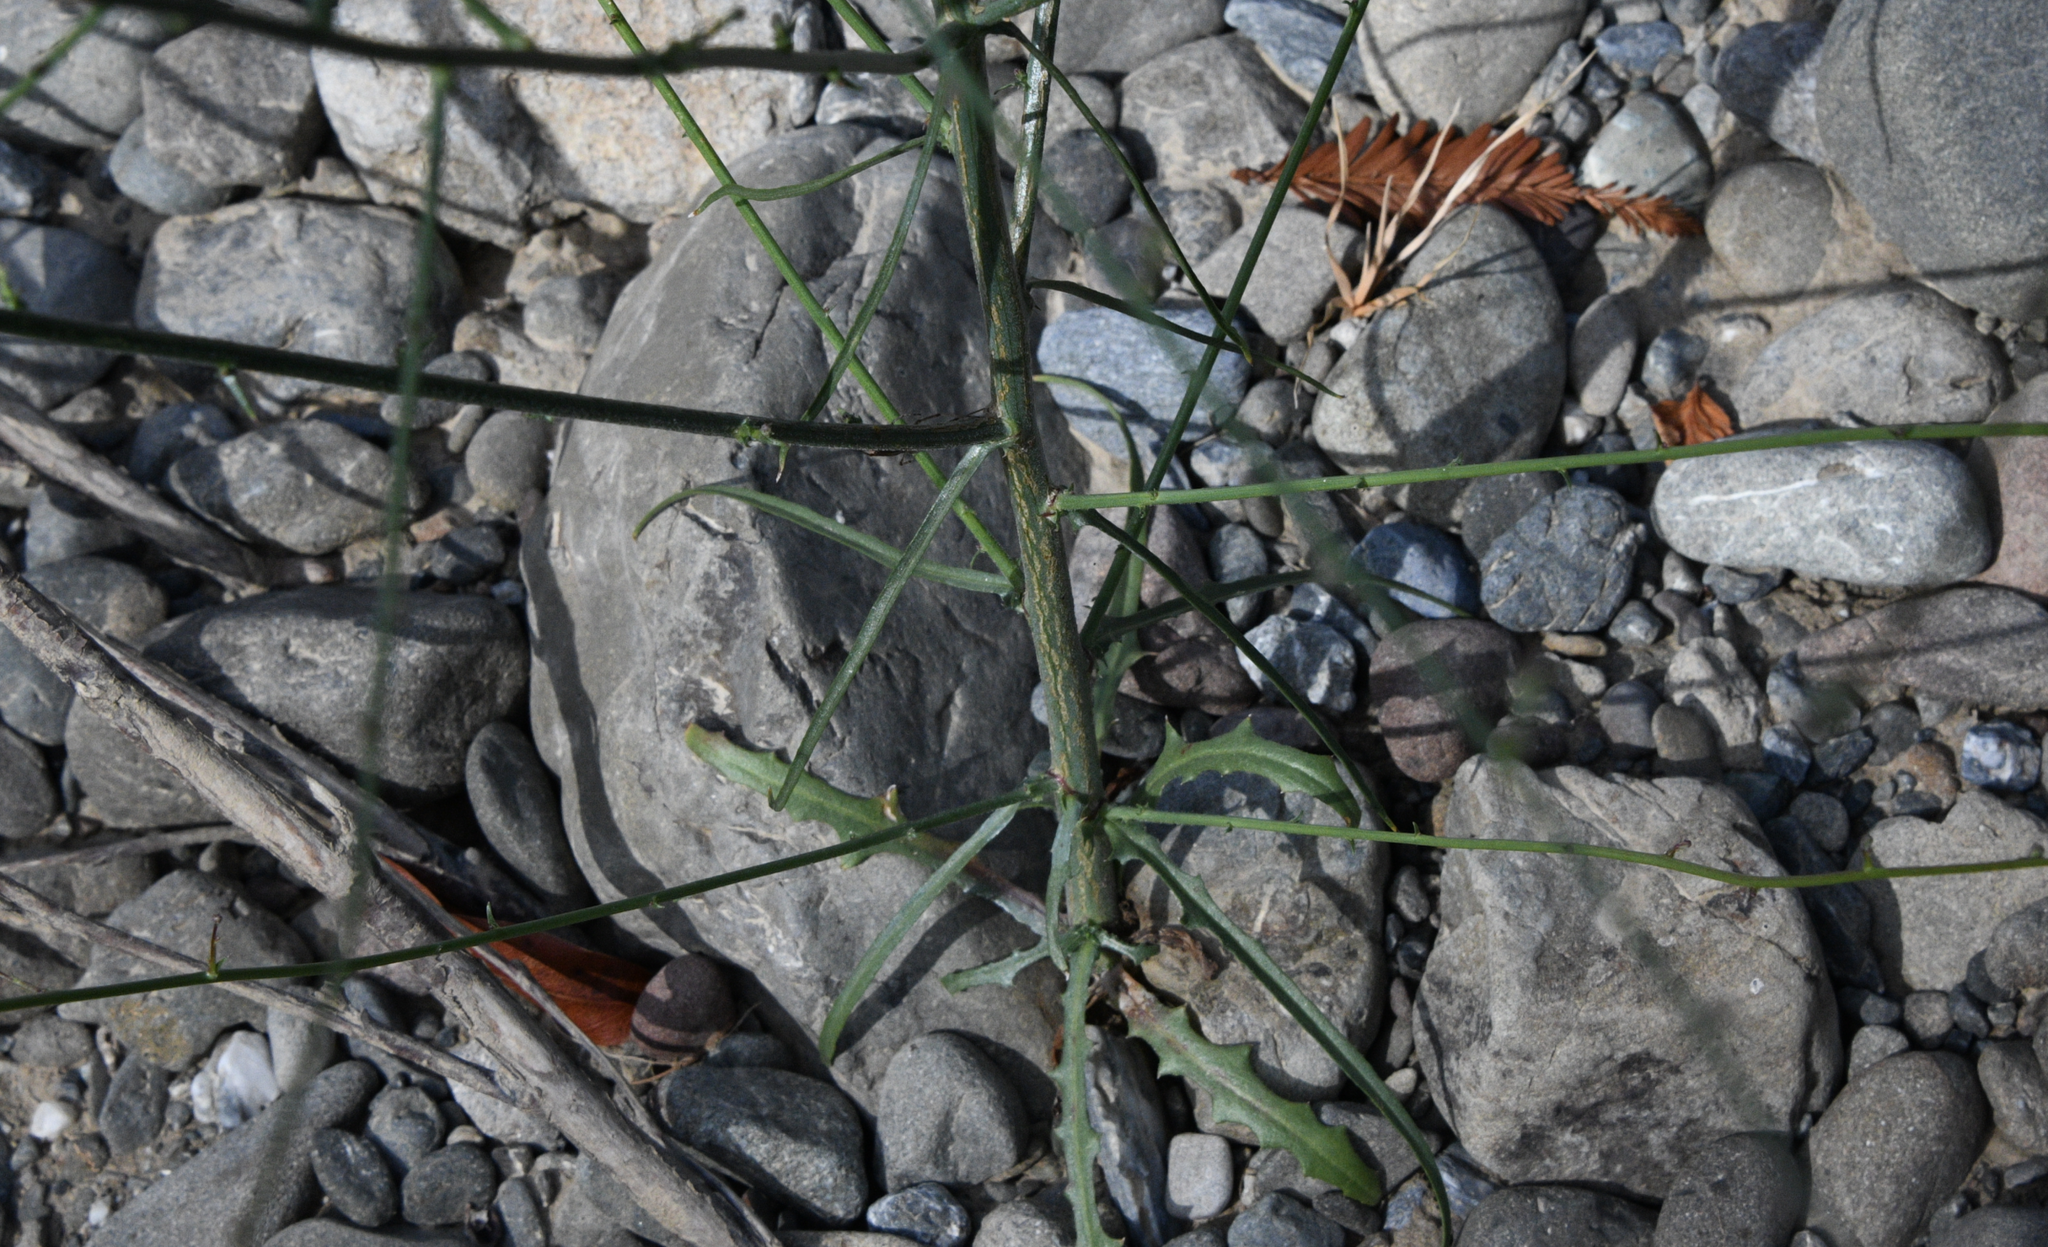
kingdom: Plantae
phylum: Tracheophyta
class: Magnoliopsida
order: Asterales
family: Asteraceae
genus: Stephanomeria
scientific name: Stephanomeria virgata
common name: Virgate wirelettuce
